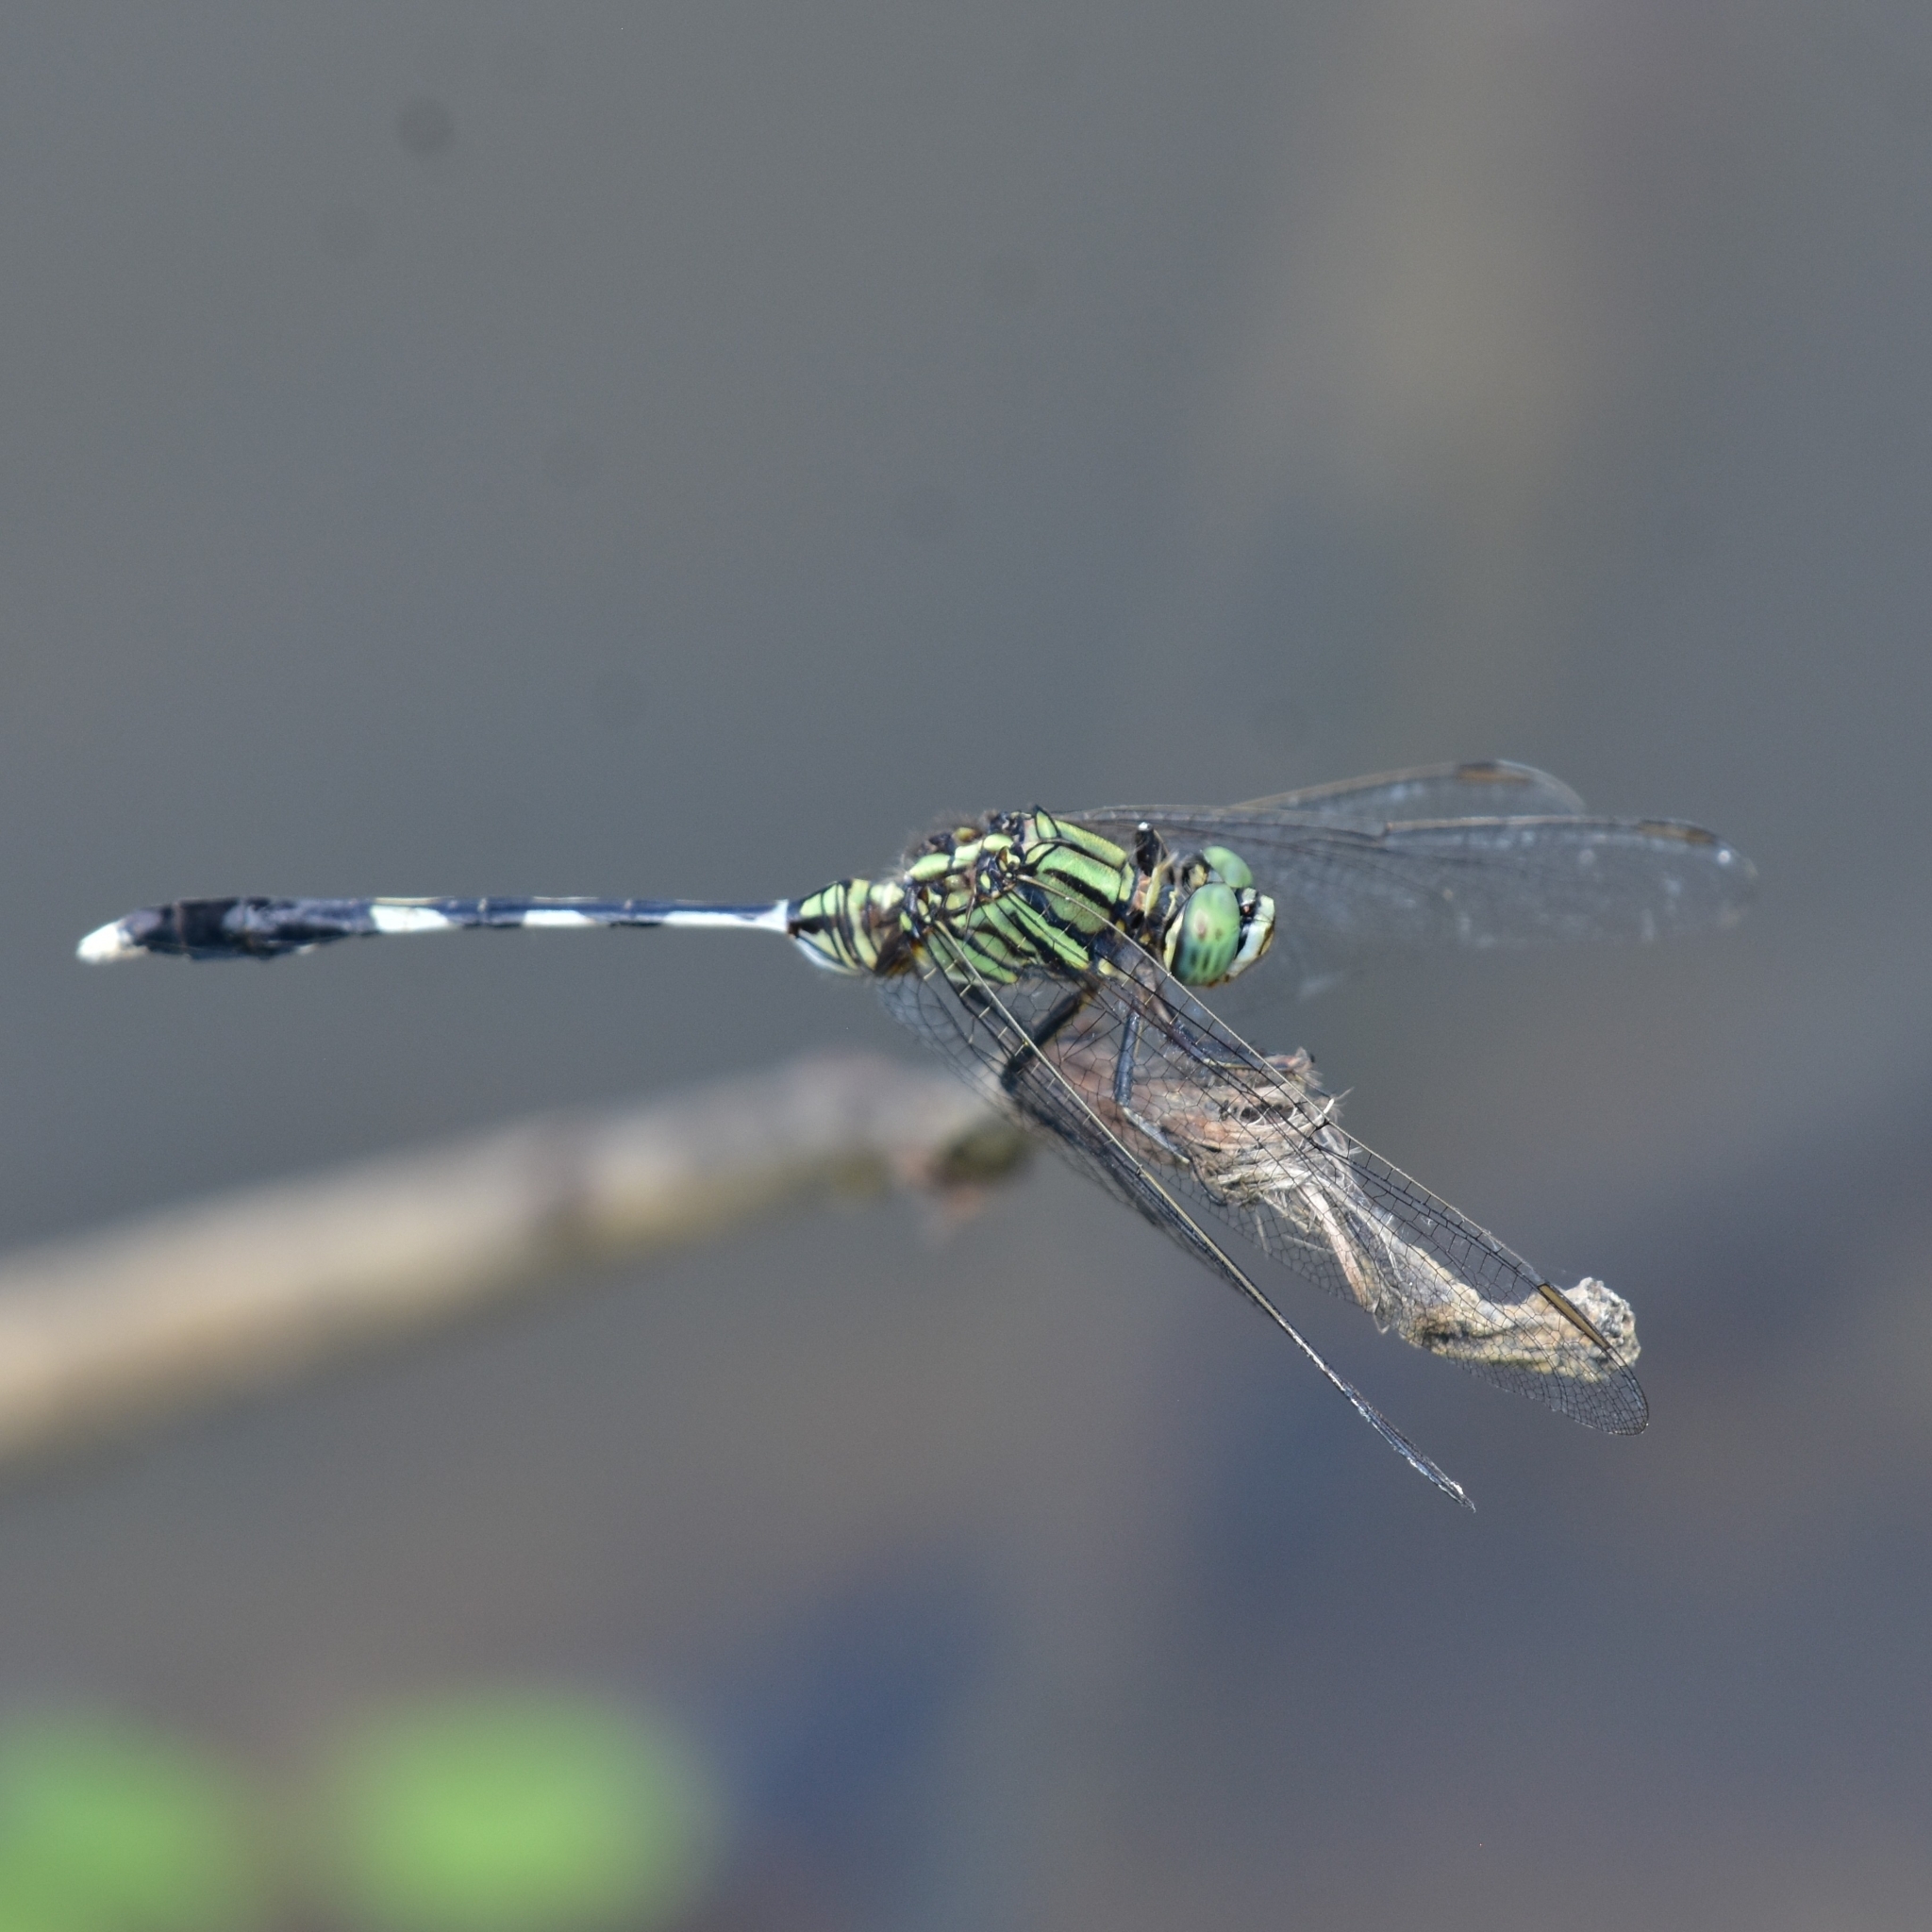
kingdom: Animalia
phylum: Arthropoda
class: Insecta
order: Odonata
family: Libellulidae
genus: Orthetrum
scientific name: Orthetrum sabina
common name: Slender skimmer
